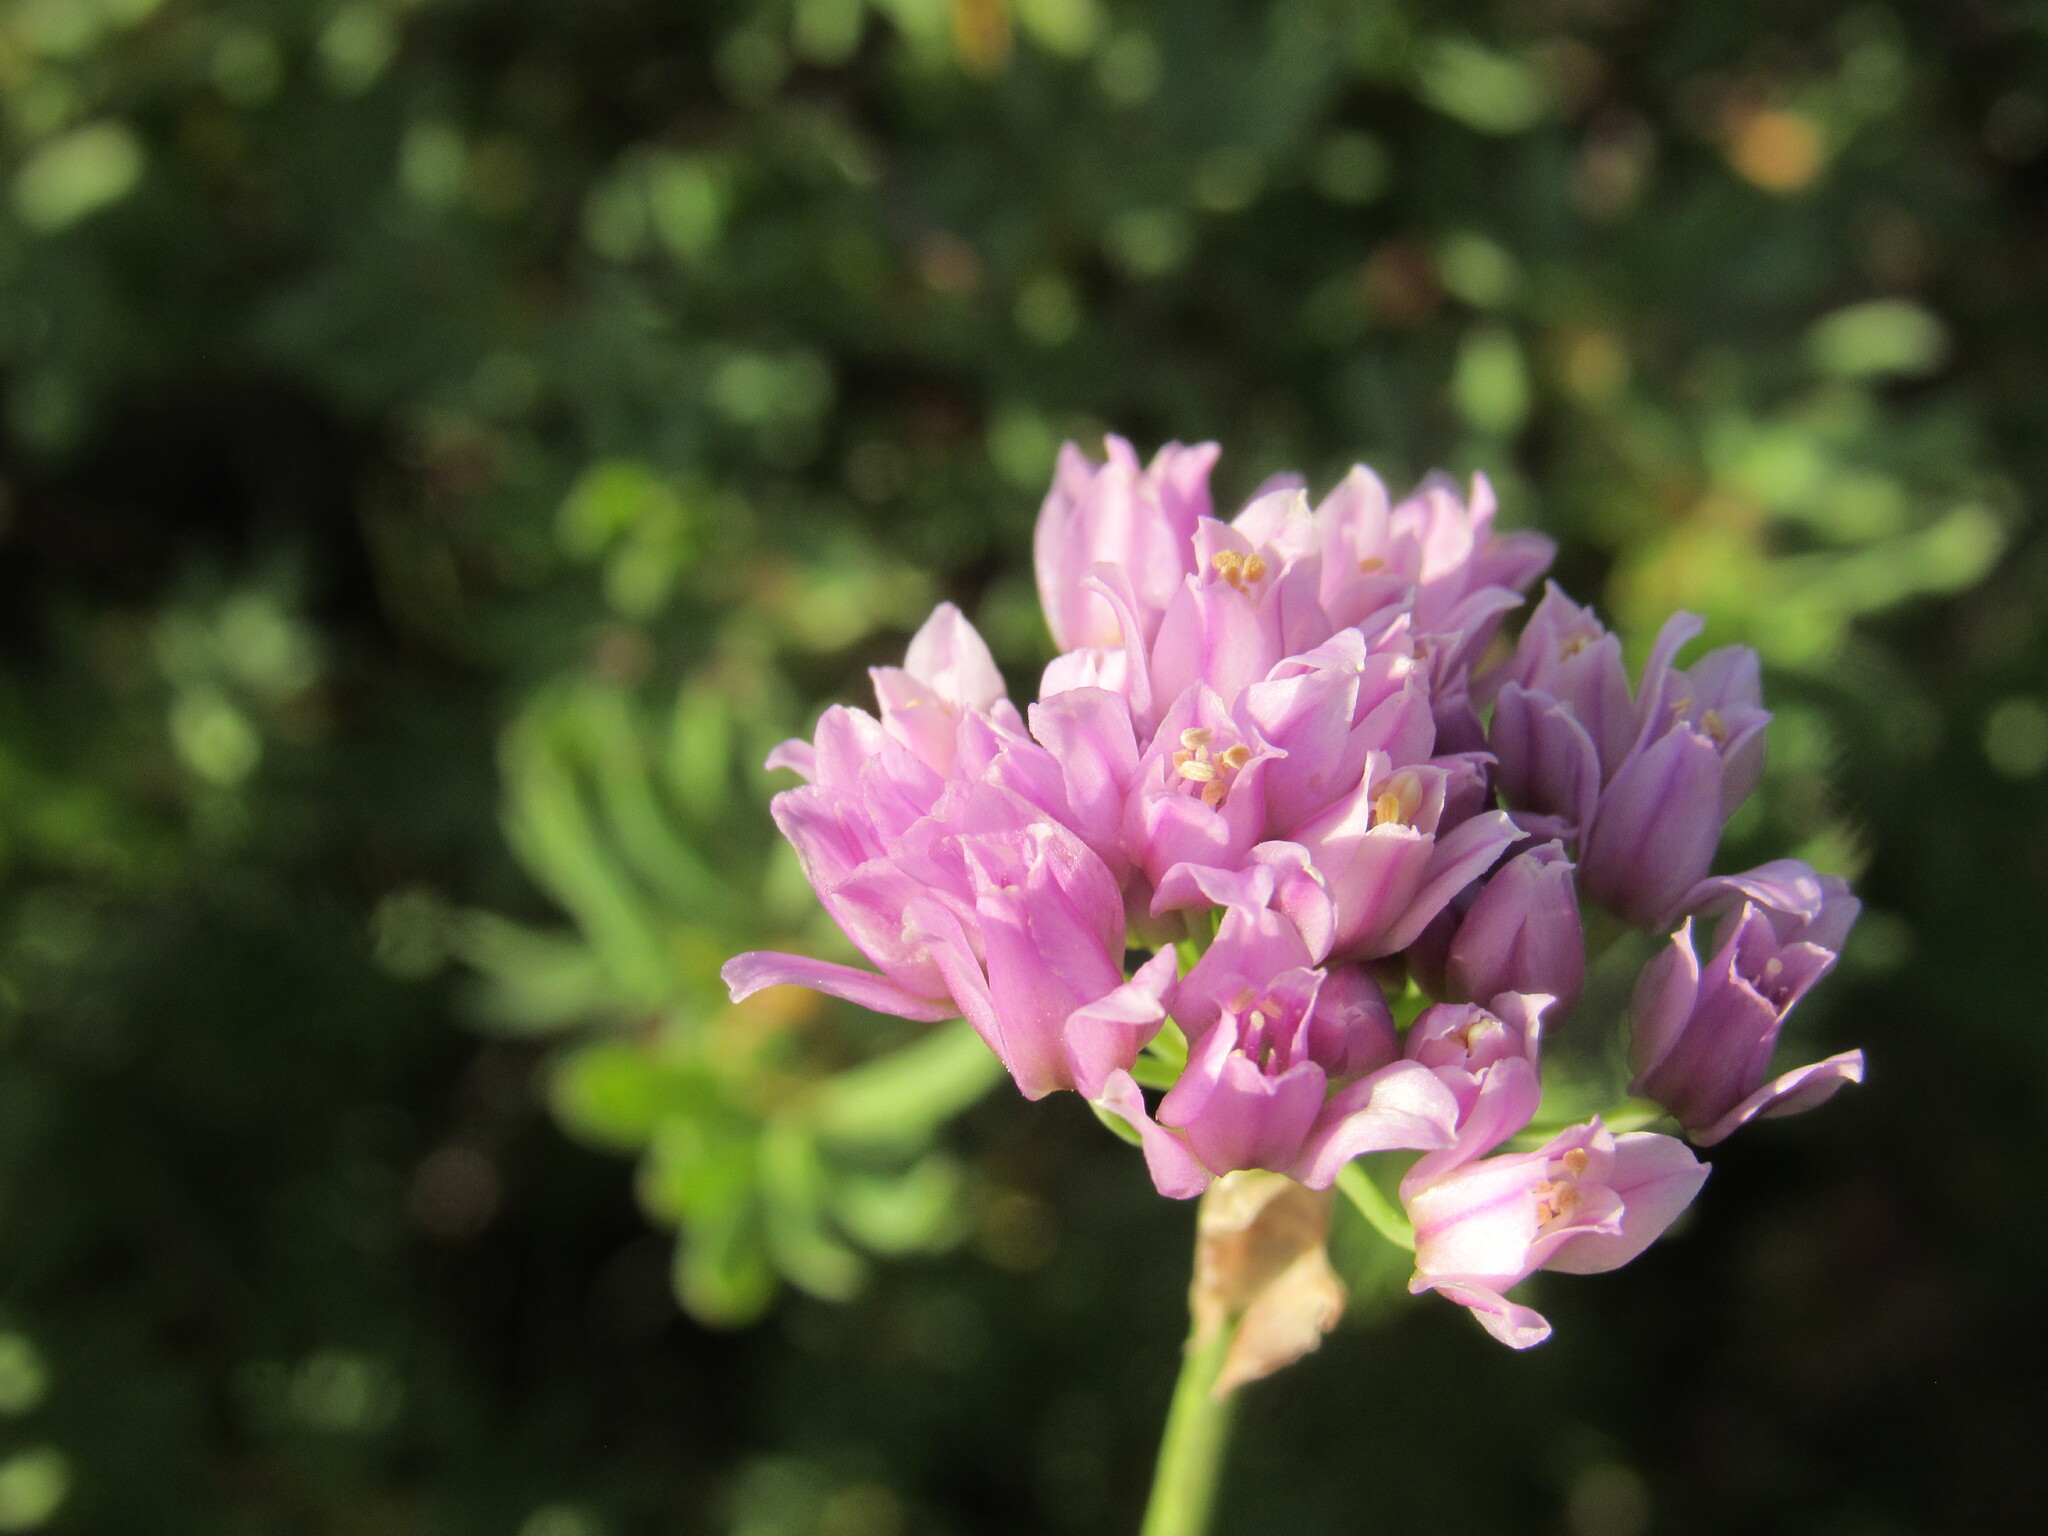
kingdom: Plantae
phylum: Tracheophyta
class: Liliopsida
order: Asparagales
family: Amaryllidaceae
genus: Allium
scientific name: Allium geyeri
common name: Geyer's onion
